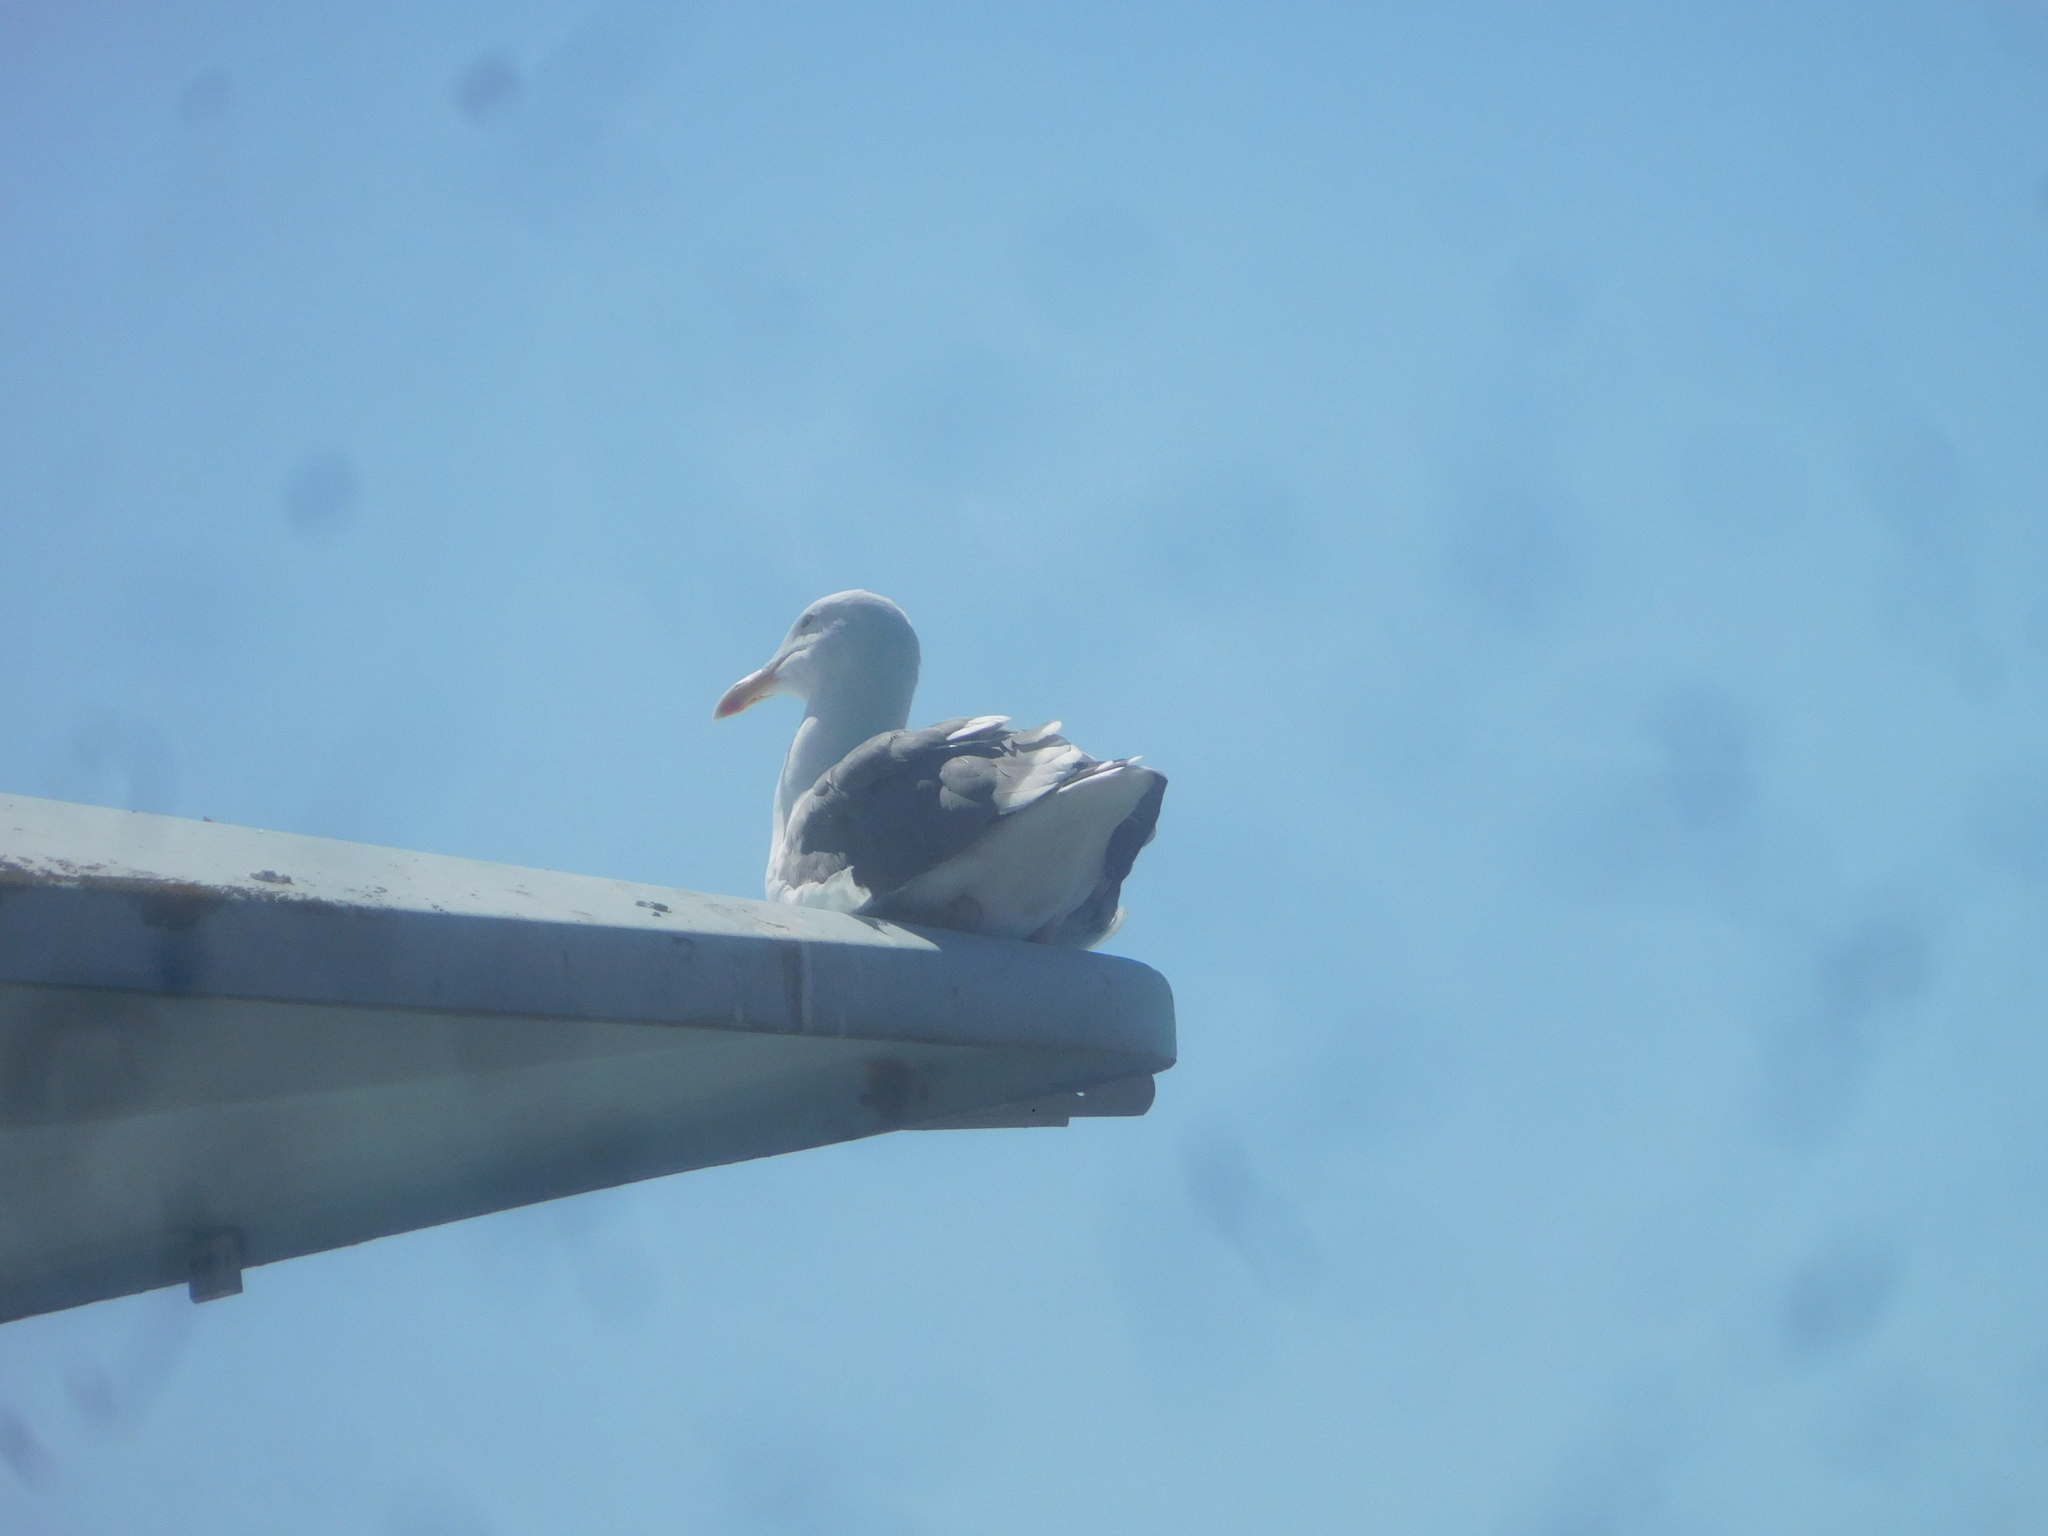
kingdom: Animalia
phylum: Chordata
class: Aves
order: Charadriiformes
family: Laridae
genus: Larus
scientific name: Larus occidentalis
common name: Western gull
